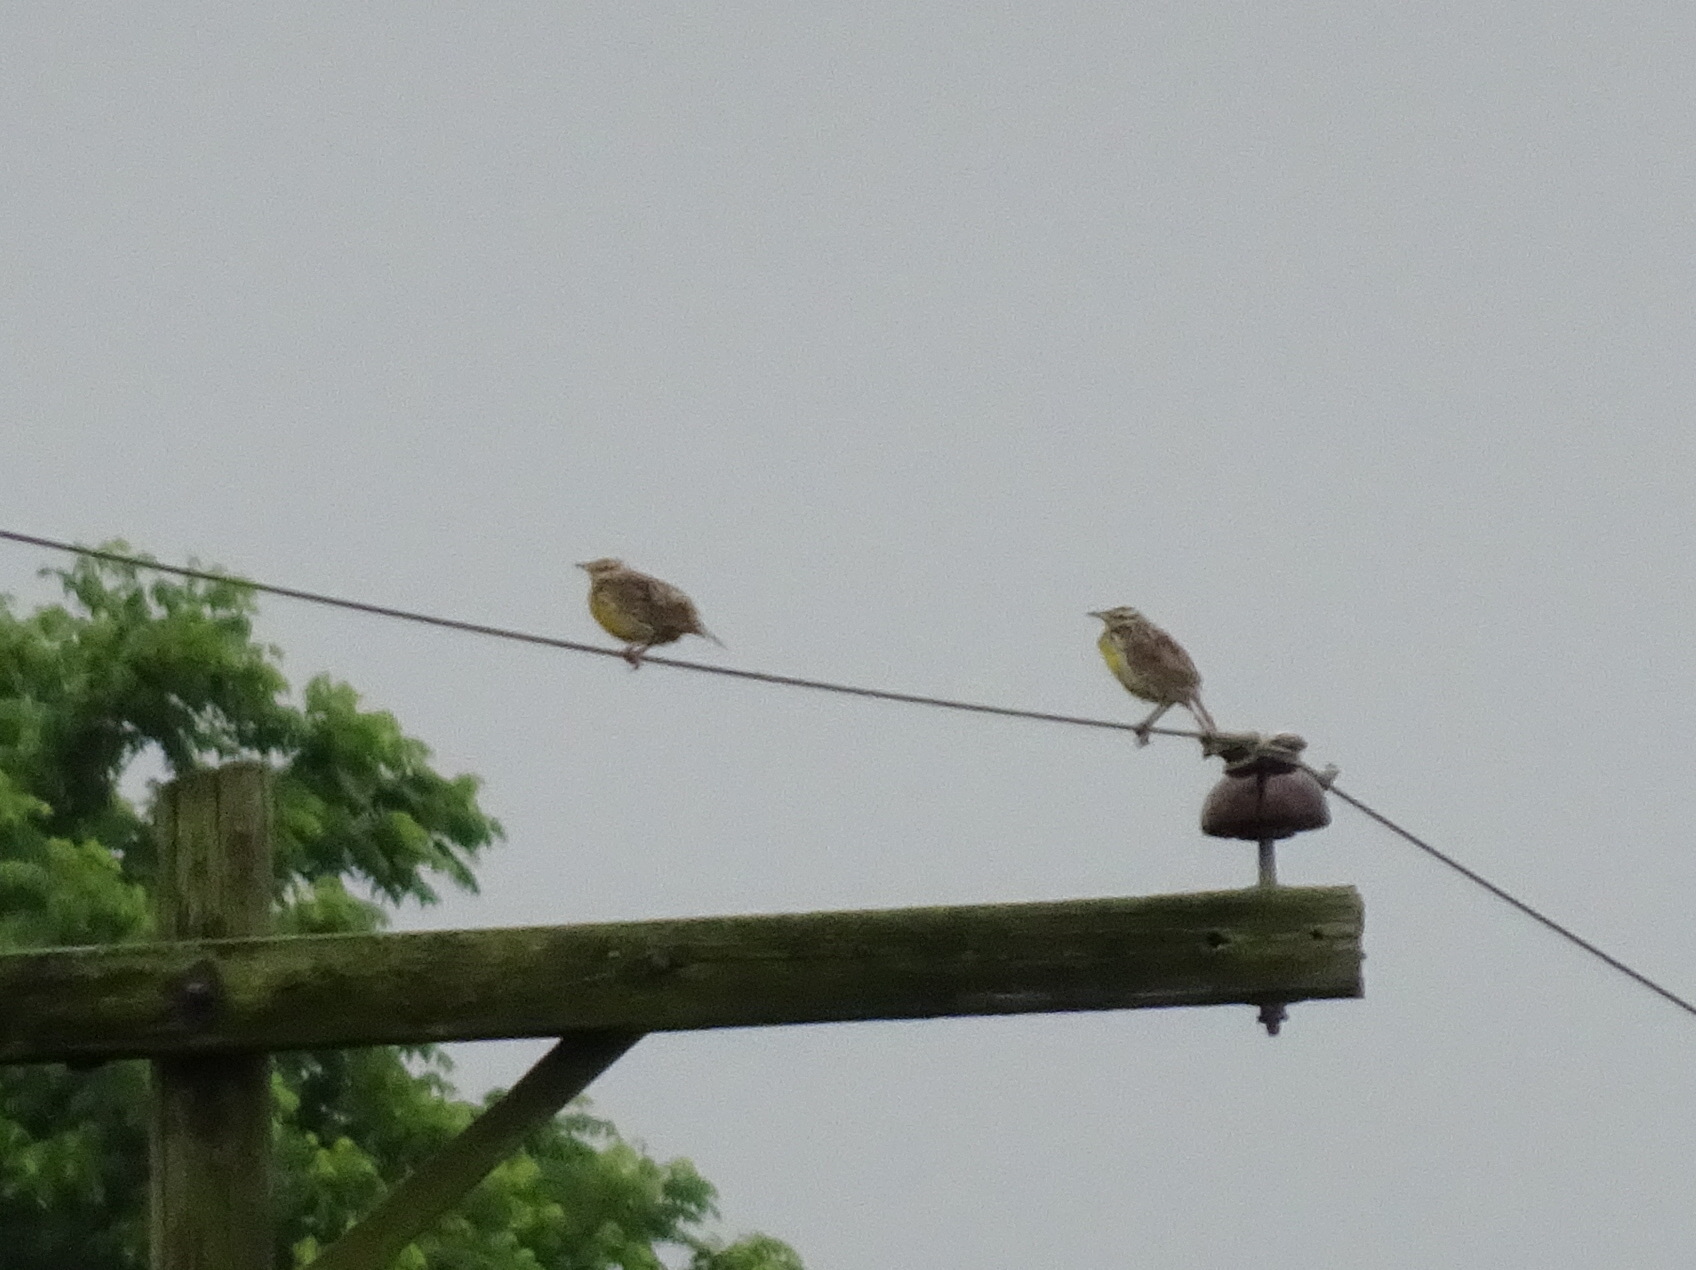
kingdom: Animalia
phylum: Chordata
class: Aves
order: Passeriformes
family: Icteridae
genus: Sturnella
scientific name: Sturnella magna
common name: Eastern meadowlark
